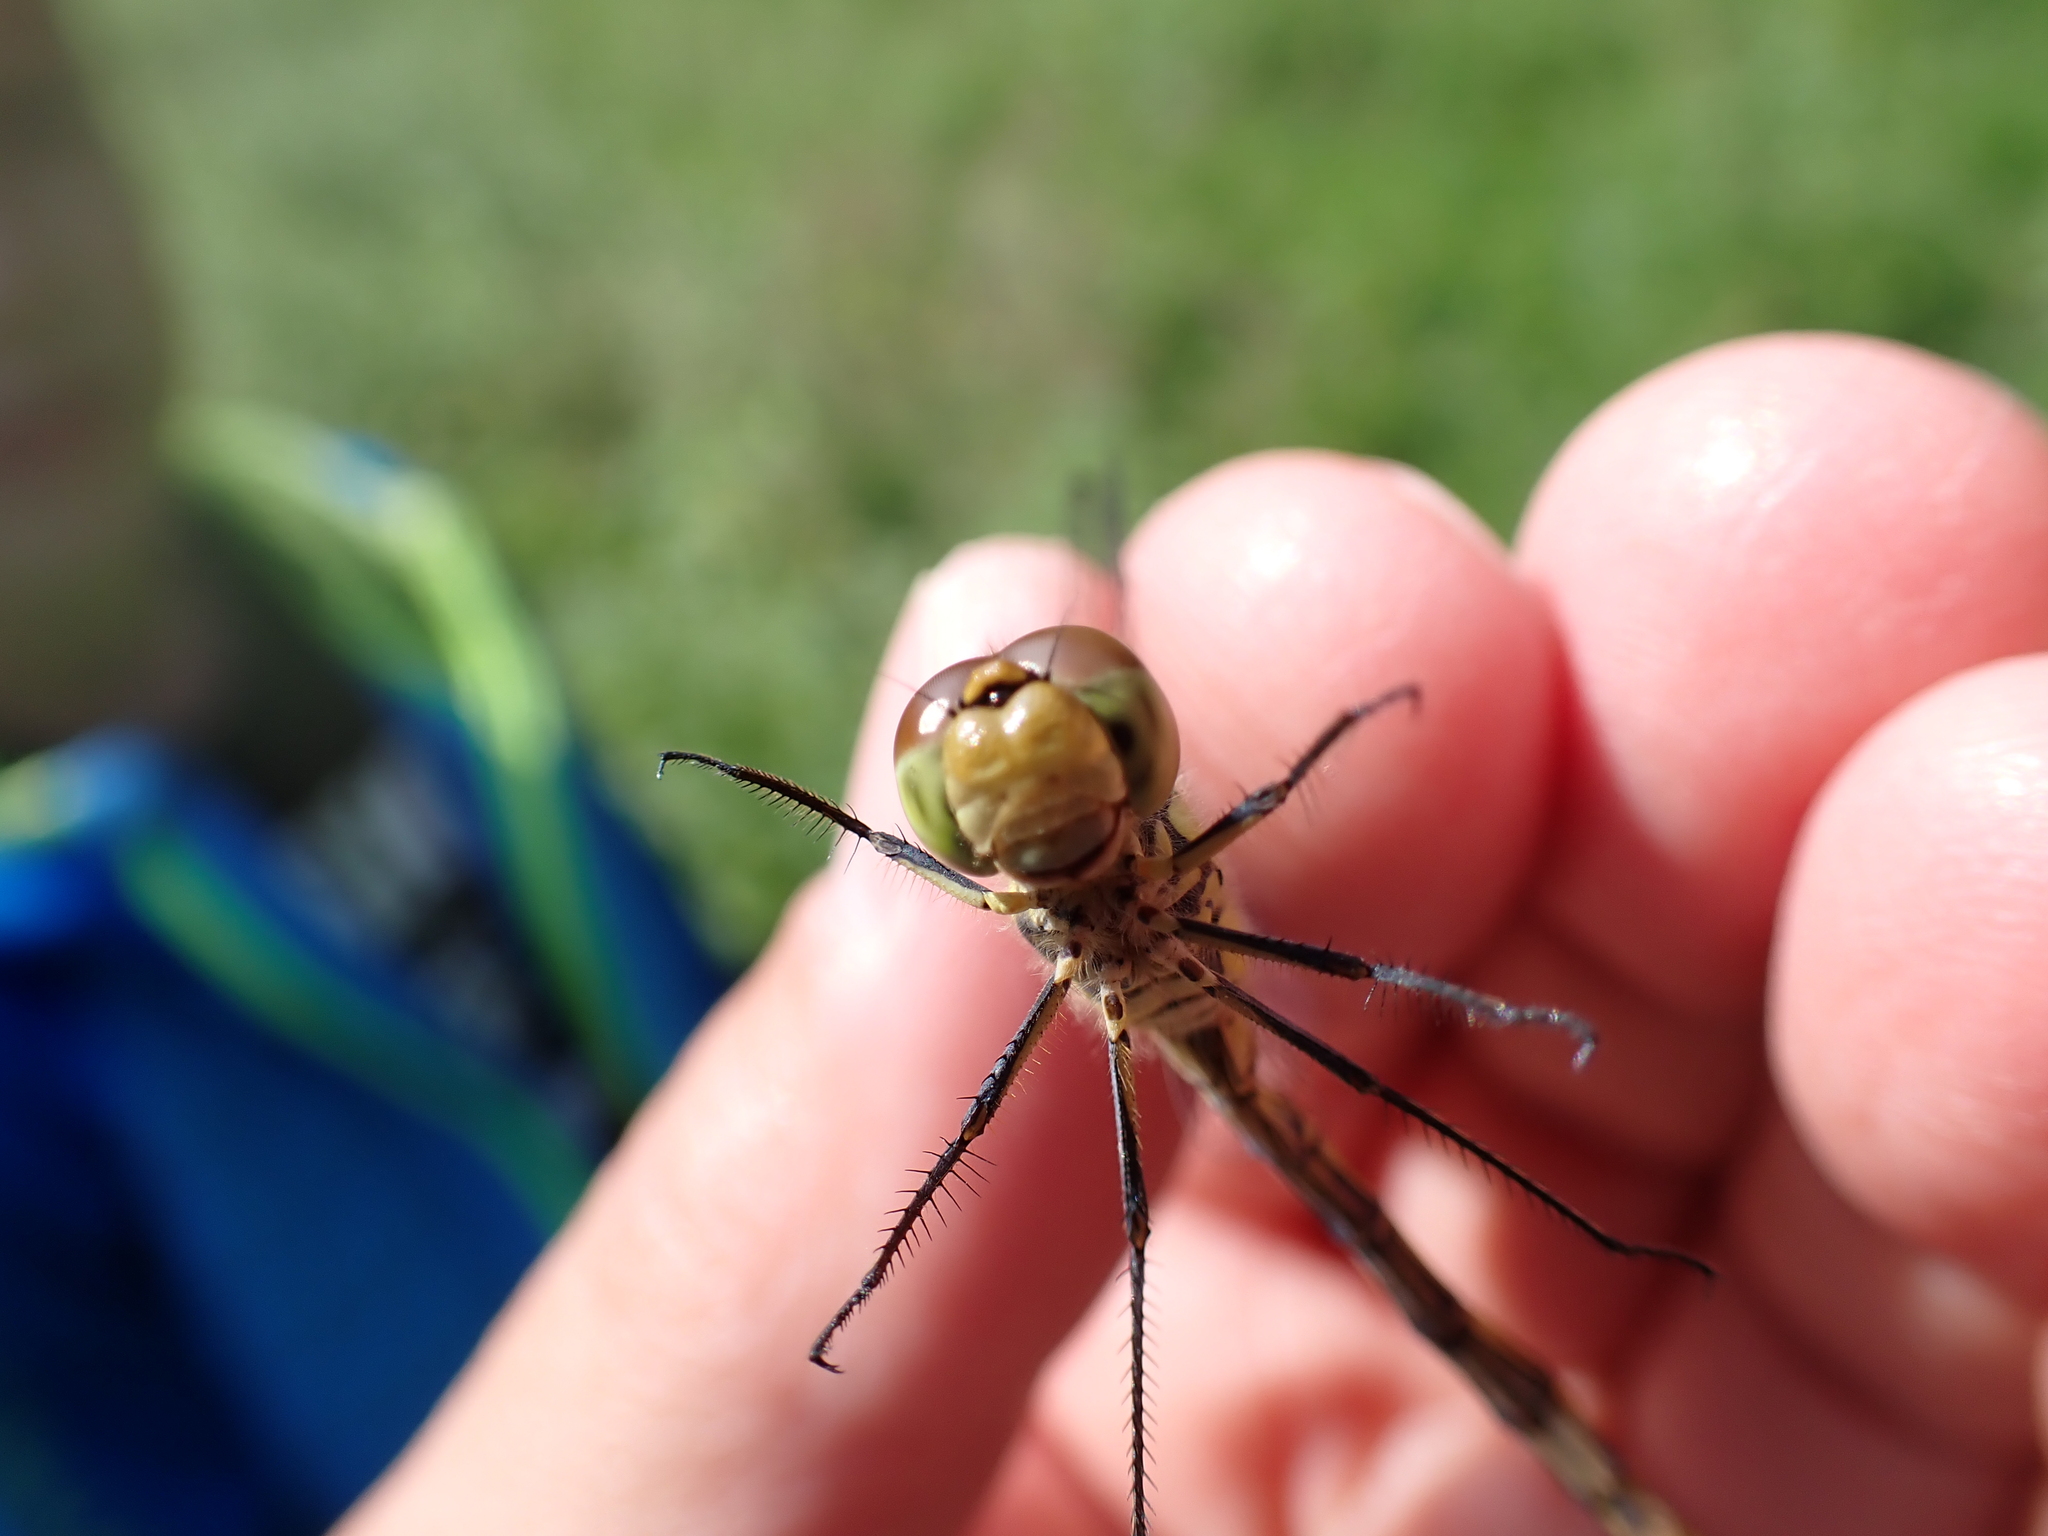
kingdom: Animalia
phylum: Arthropoda
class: Insecta
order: Odonata
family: Libellulidae
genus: Sympetrum
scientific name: Sympetrum striolatum
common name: Common darter
